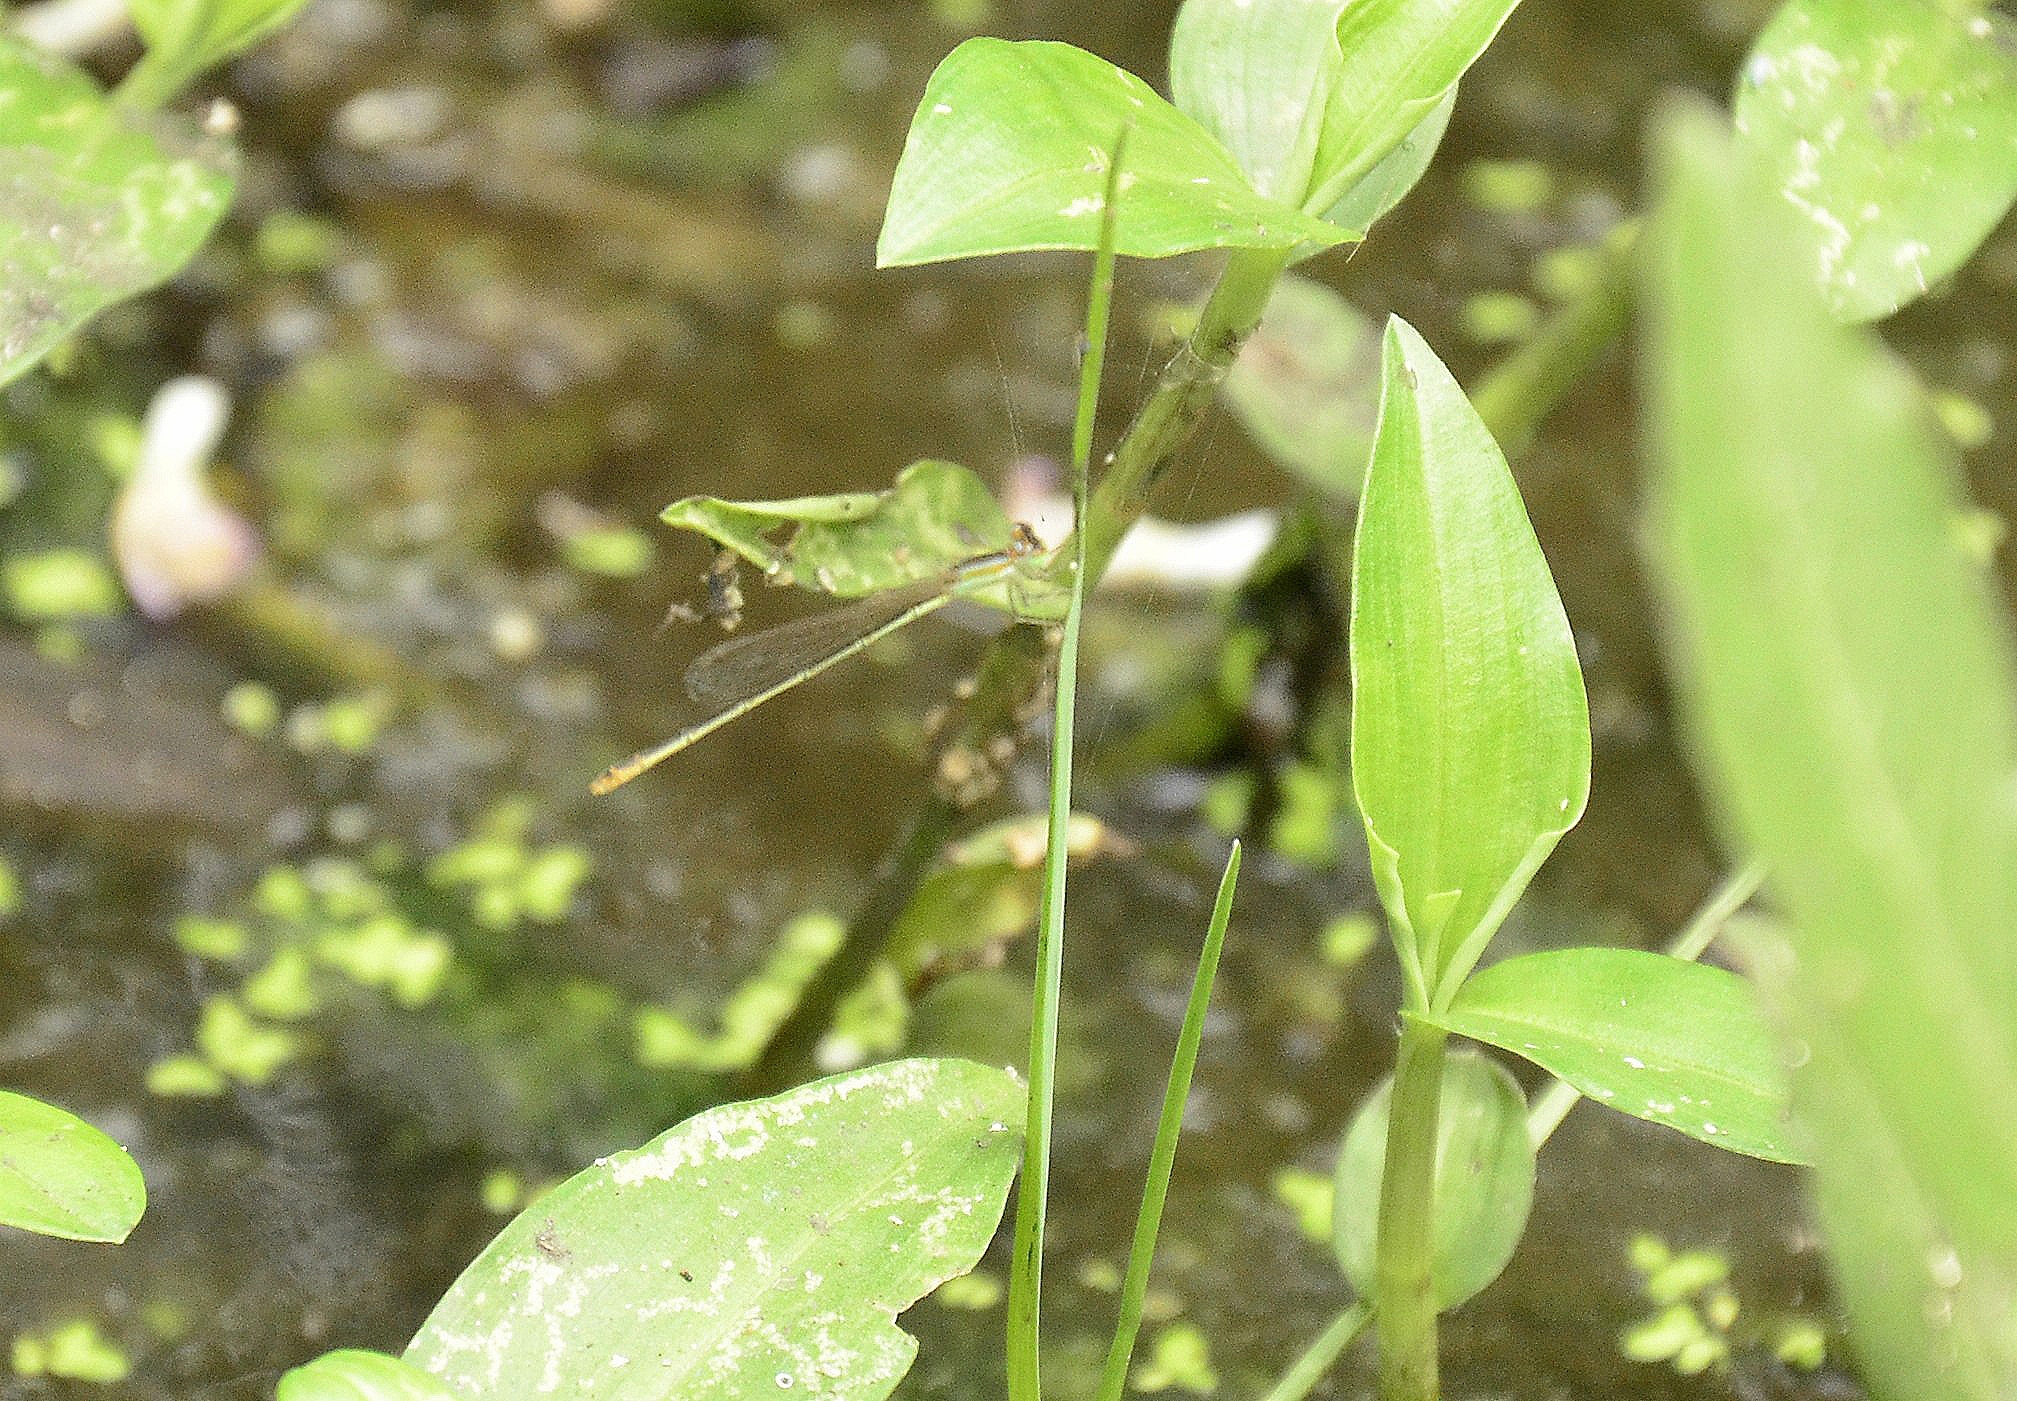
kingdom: Animalia
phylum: Arthropoda
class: Insecta
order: Odonata
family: Coenagrionidae
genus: Agriocnemis
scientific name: Agriocnemis pygmaea
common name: Pygmy wisp
